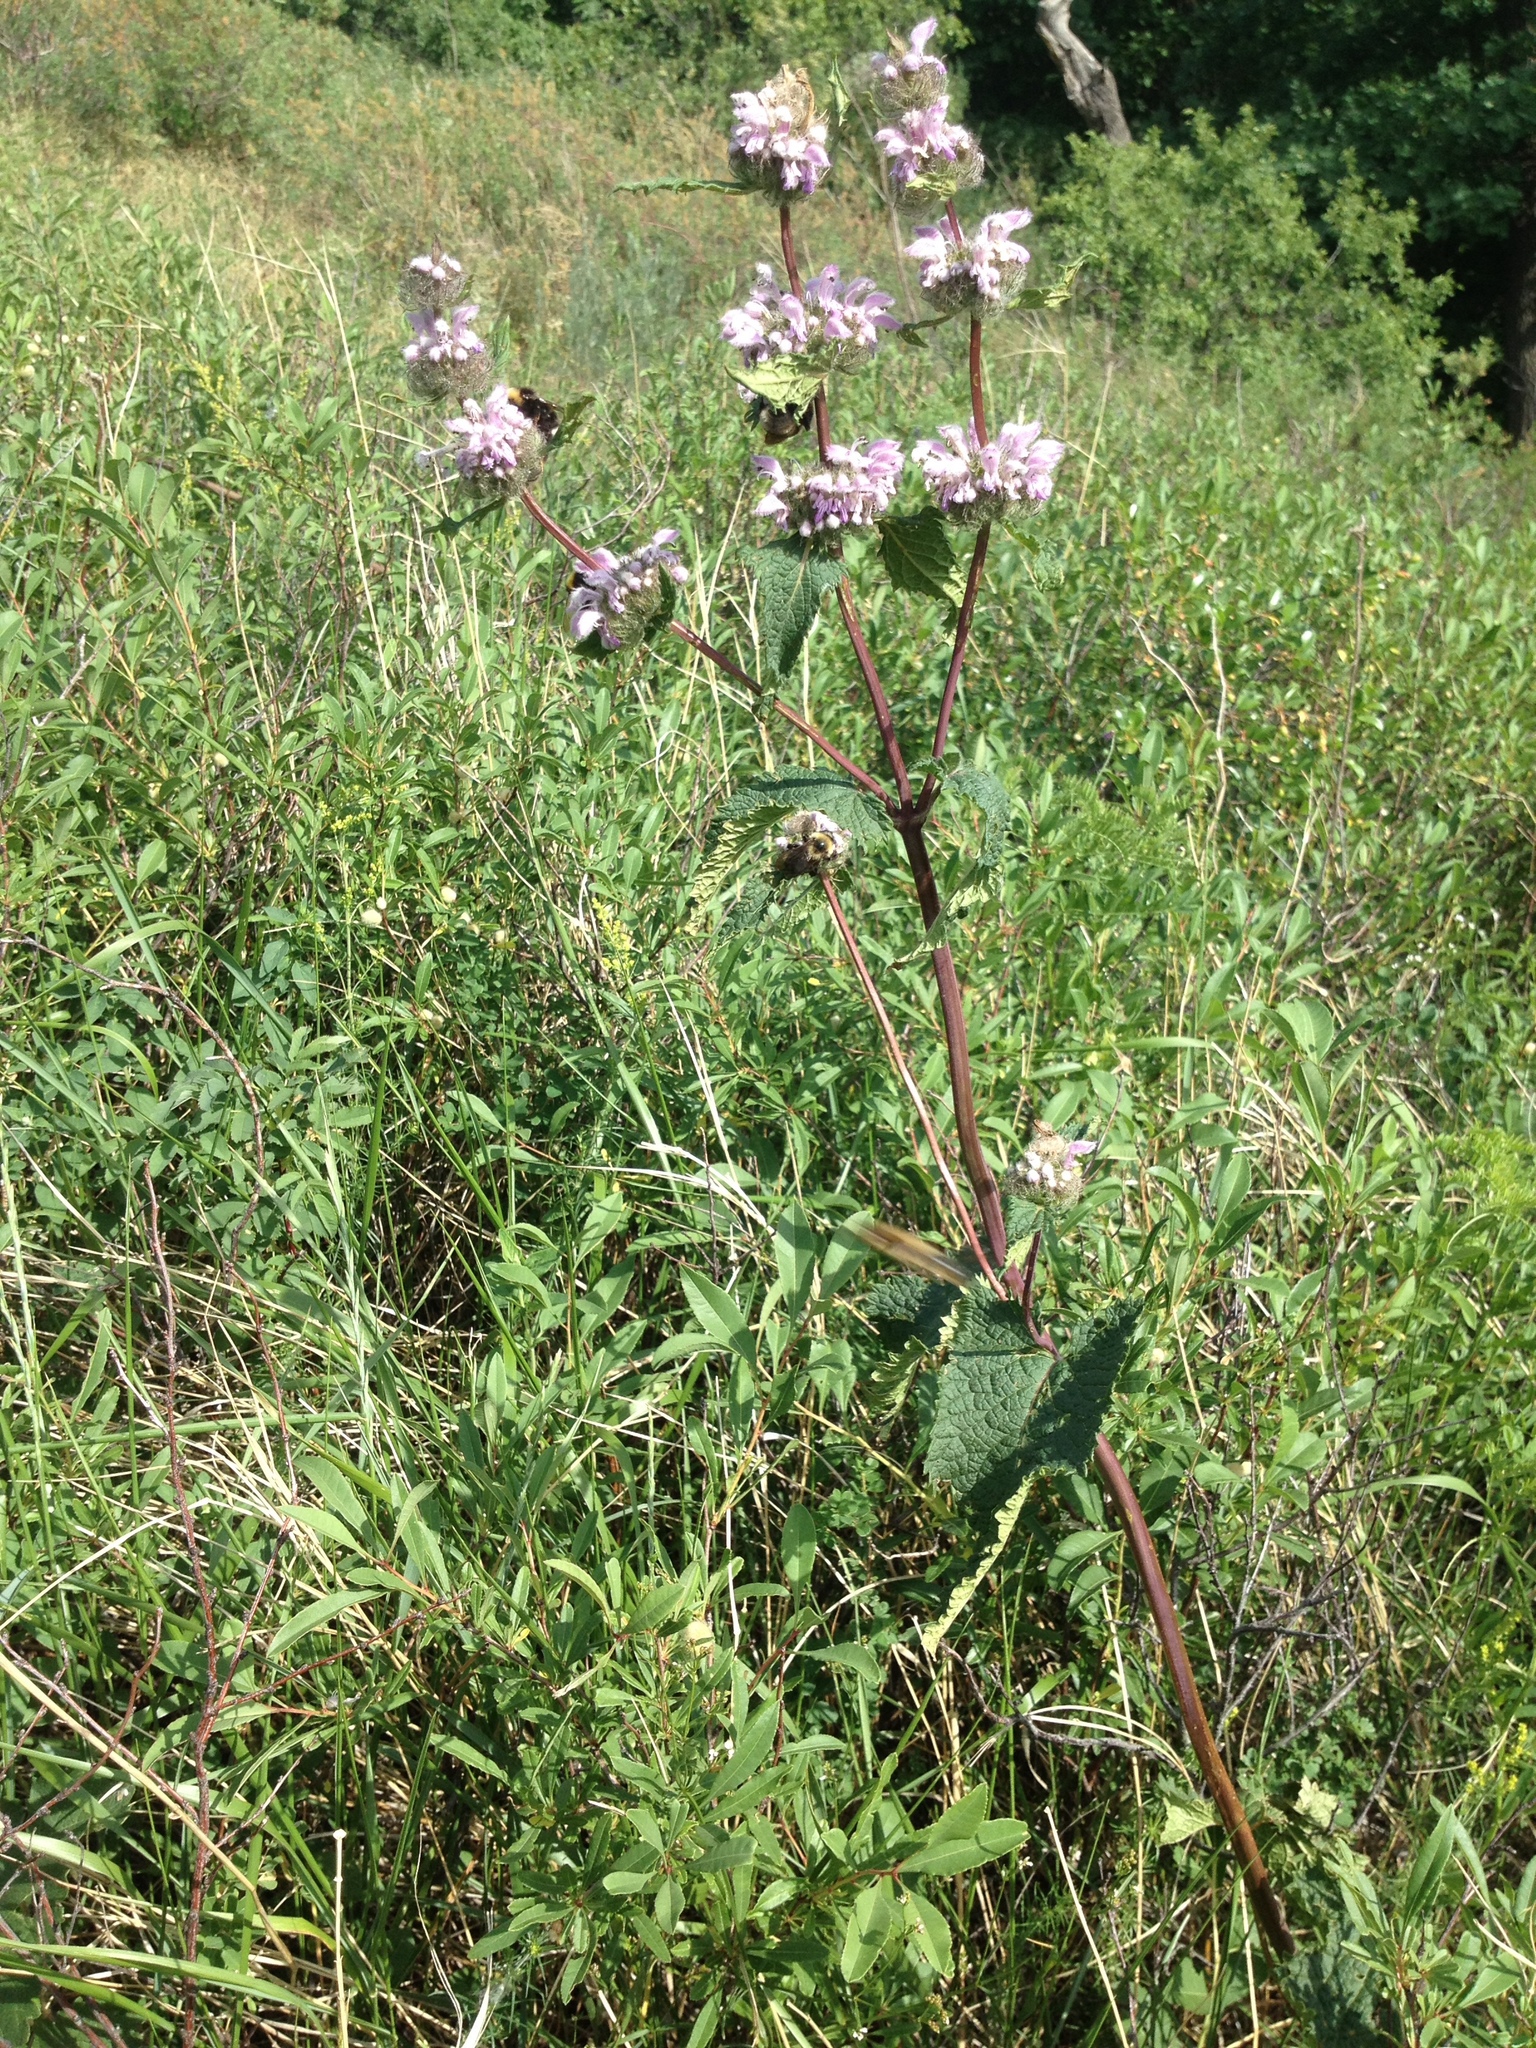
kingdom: Plantae
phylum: Tracheophyta
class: Magnoliopsida
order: Lamiales
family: Lamiaceae
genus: Phlomoides
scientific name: Phlomoides tuberosa
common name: Tuberous jerusalem sage
